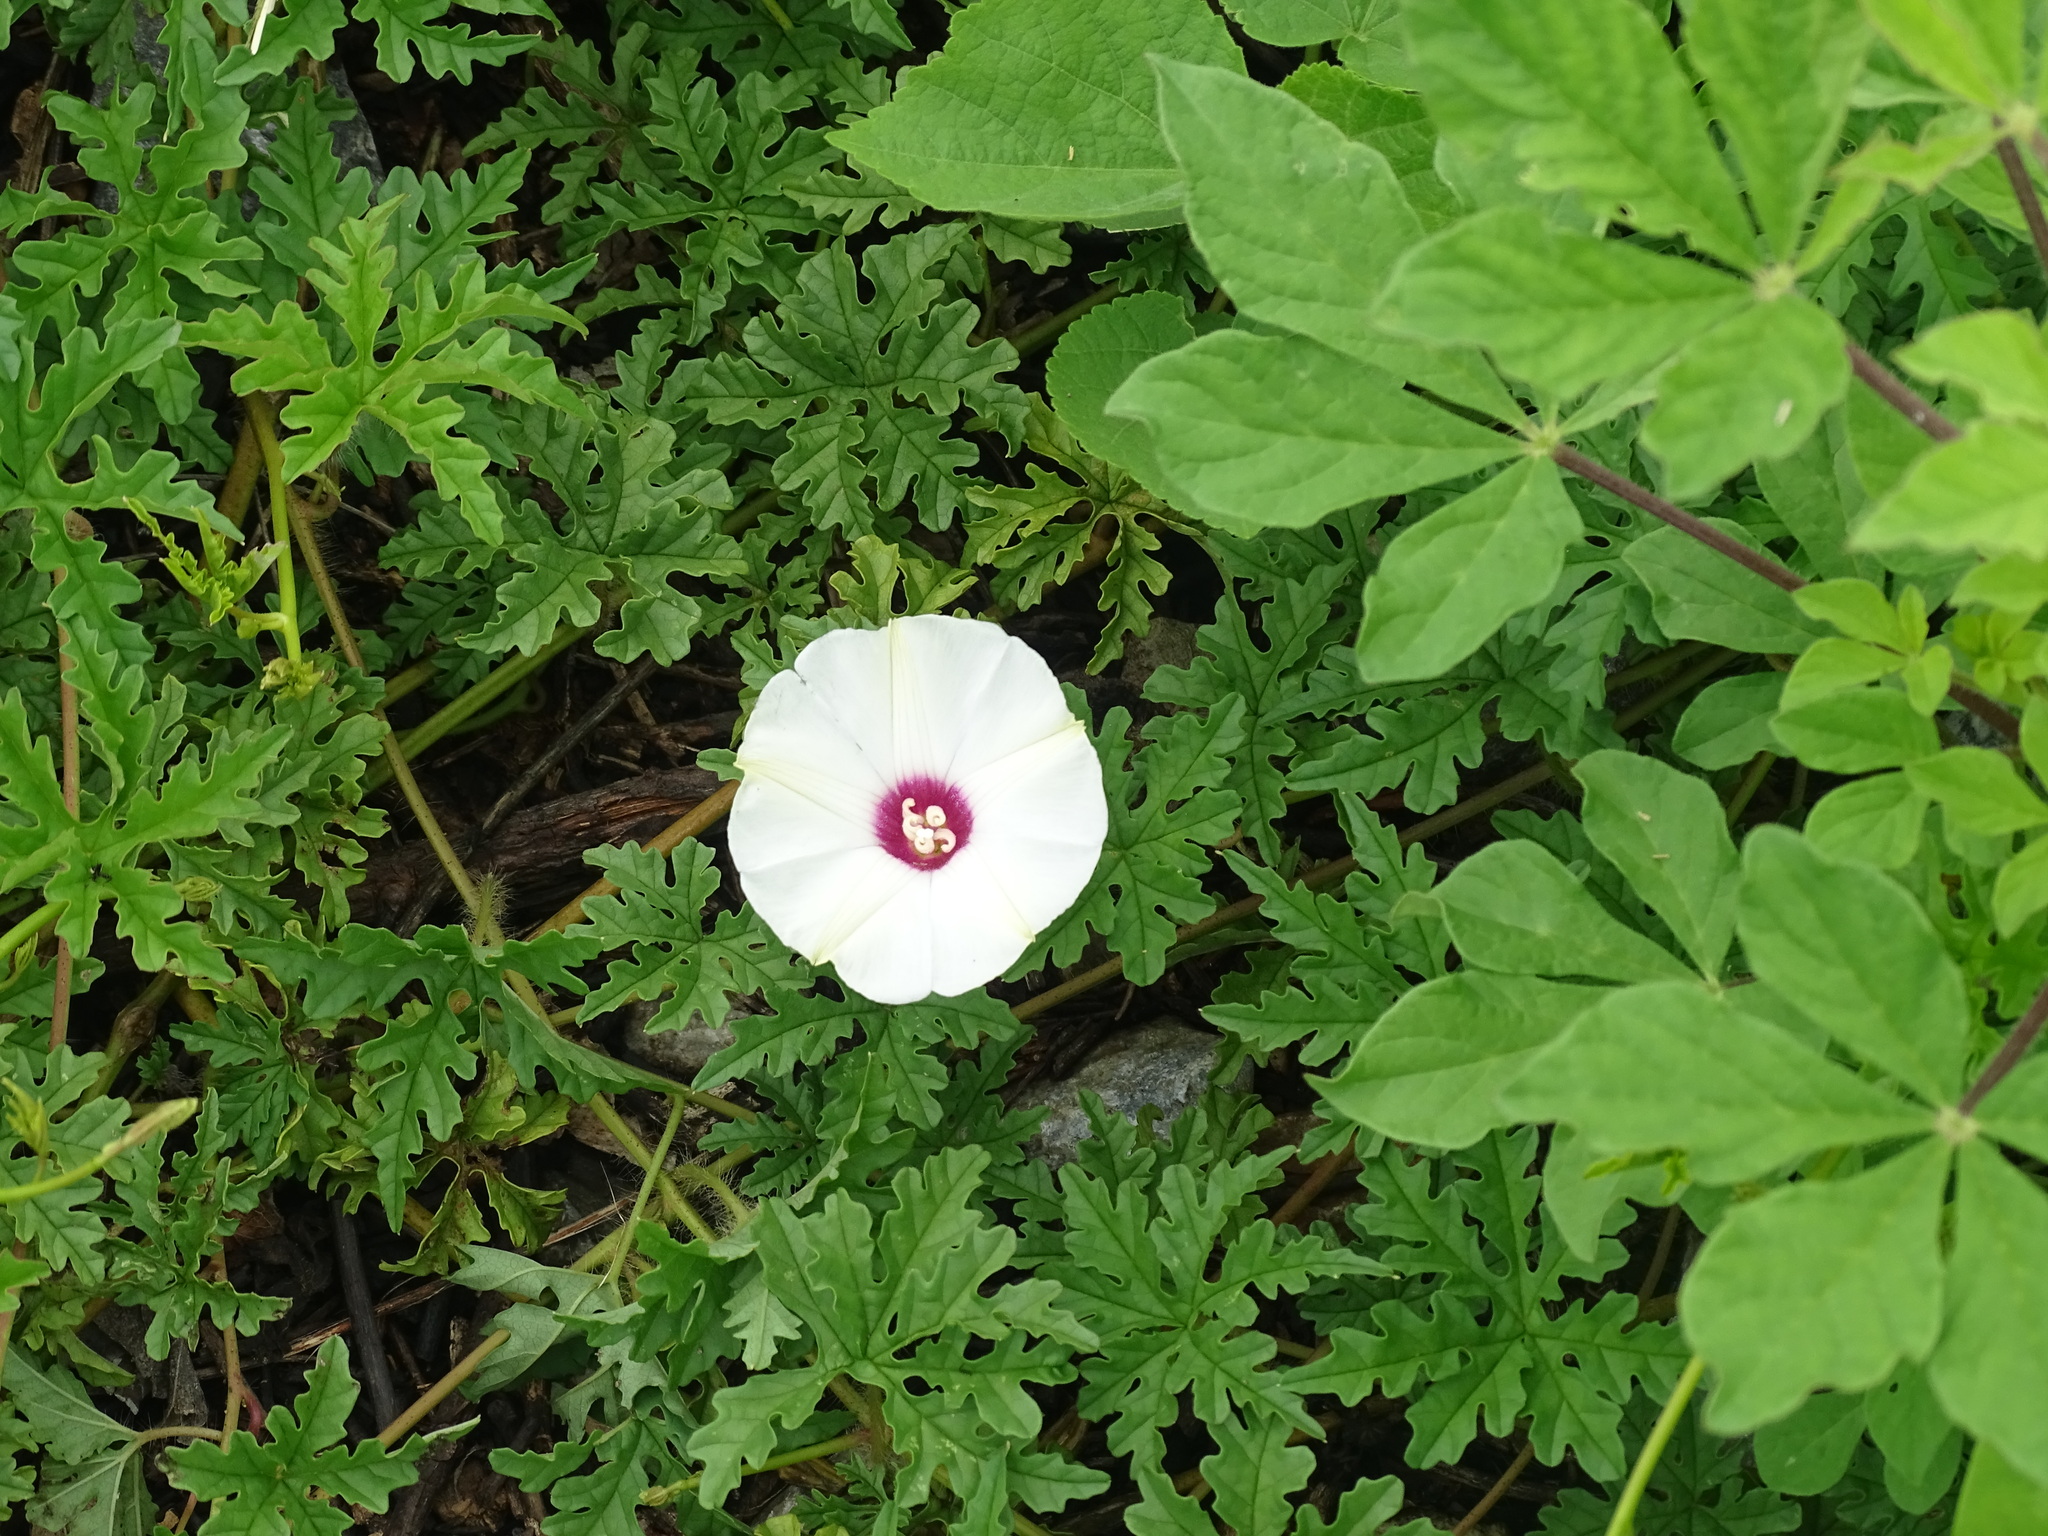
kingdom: Plantae
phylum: Tracheophyta
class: Magnoliopsida
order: Solanales
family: Convolvulaceae
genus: Distimake
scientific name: Distimake dissectus
